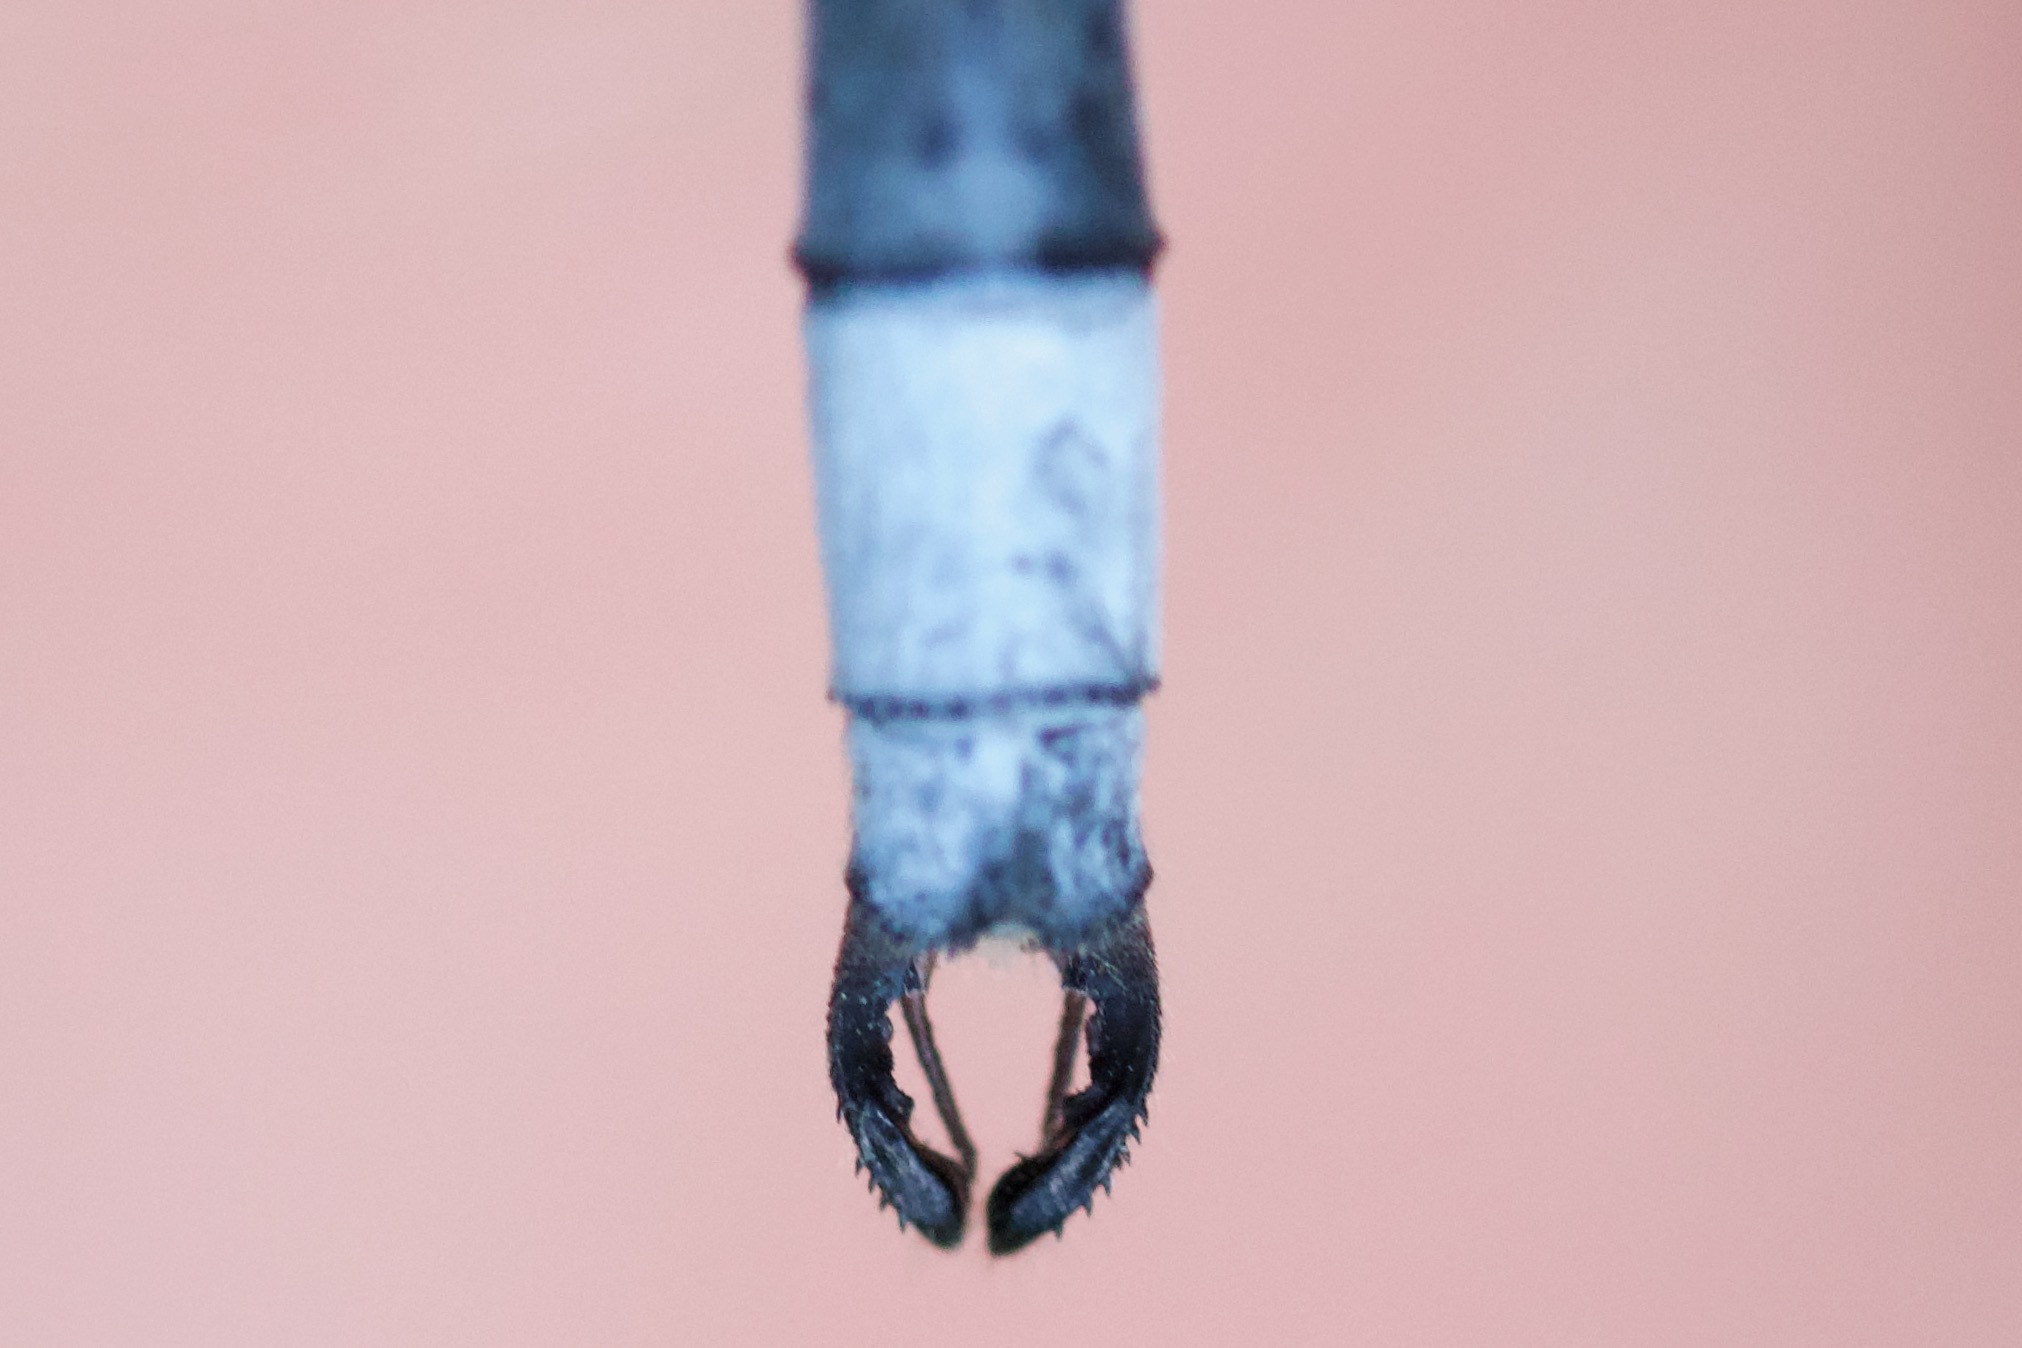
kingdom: Animalia
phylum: Arthropoda
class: Insecta
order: Odonata
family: Lestidae
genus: Lestes
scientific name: Lestes vigilax
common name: Swamp spreadwing
